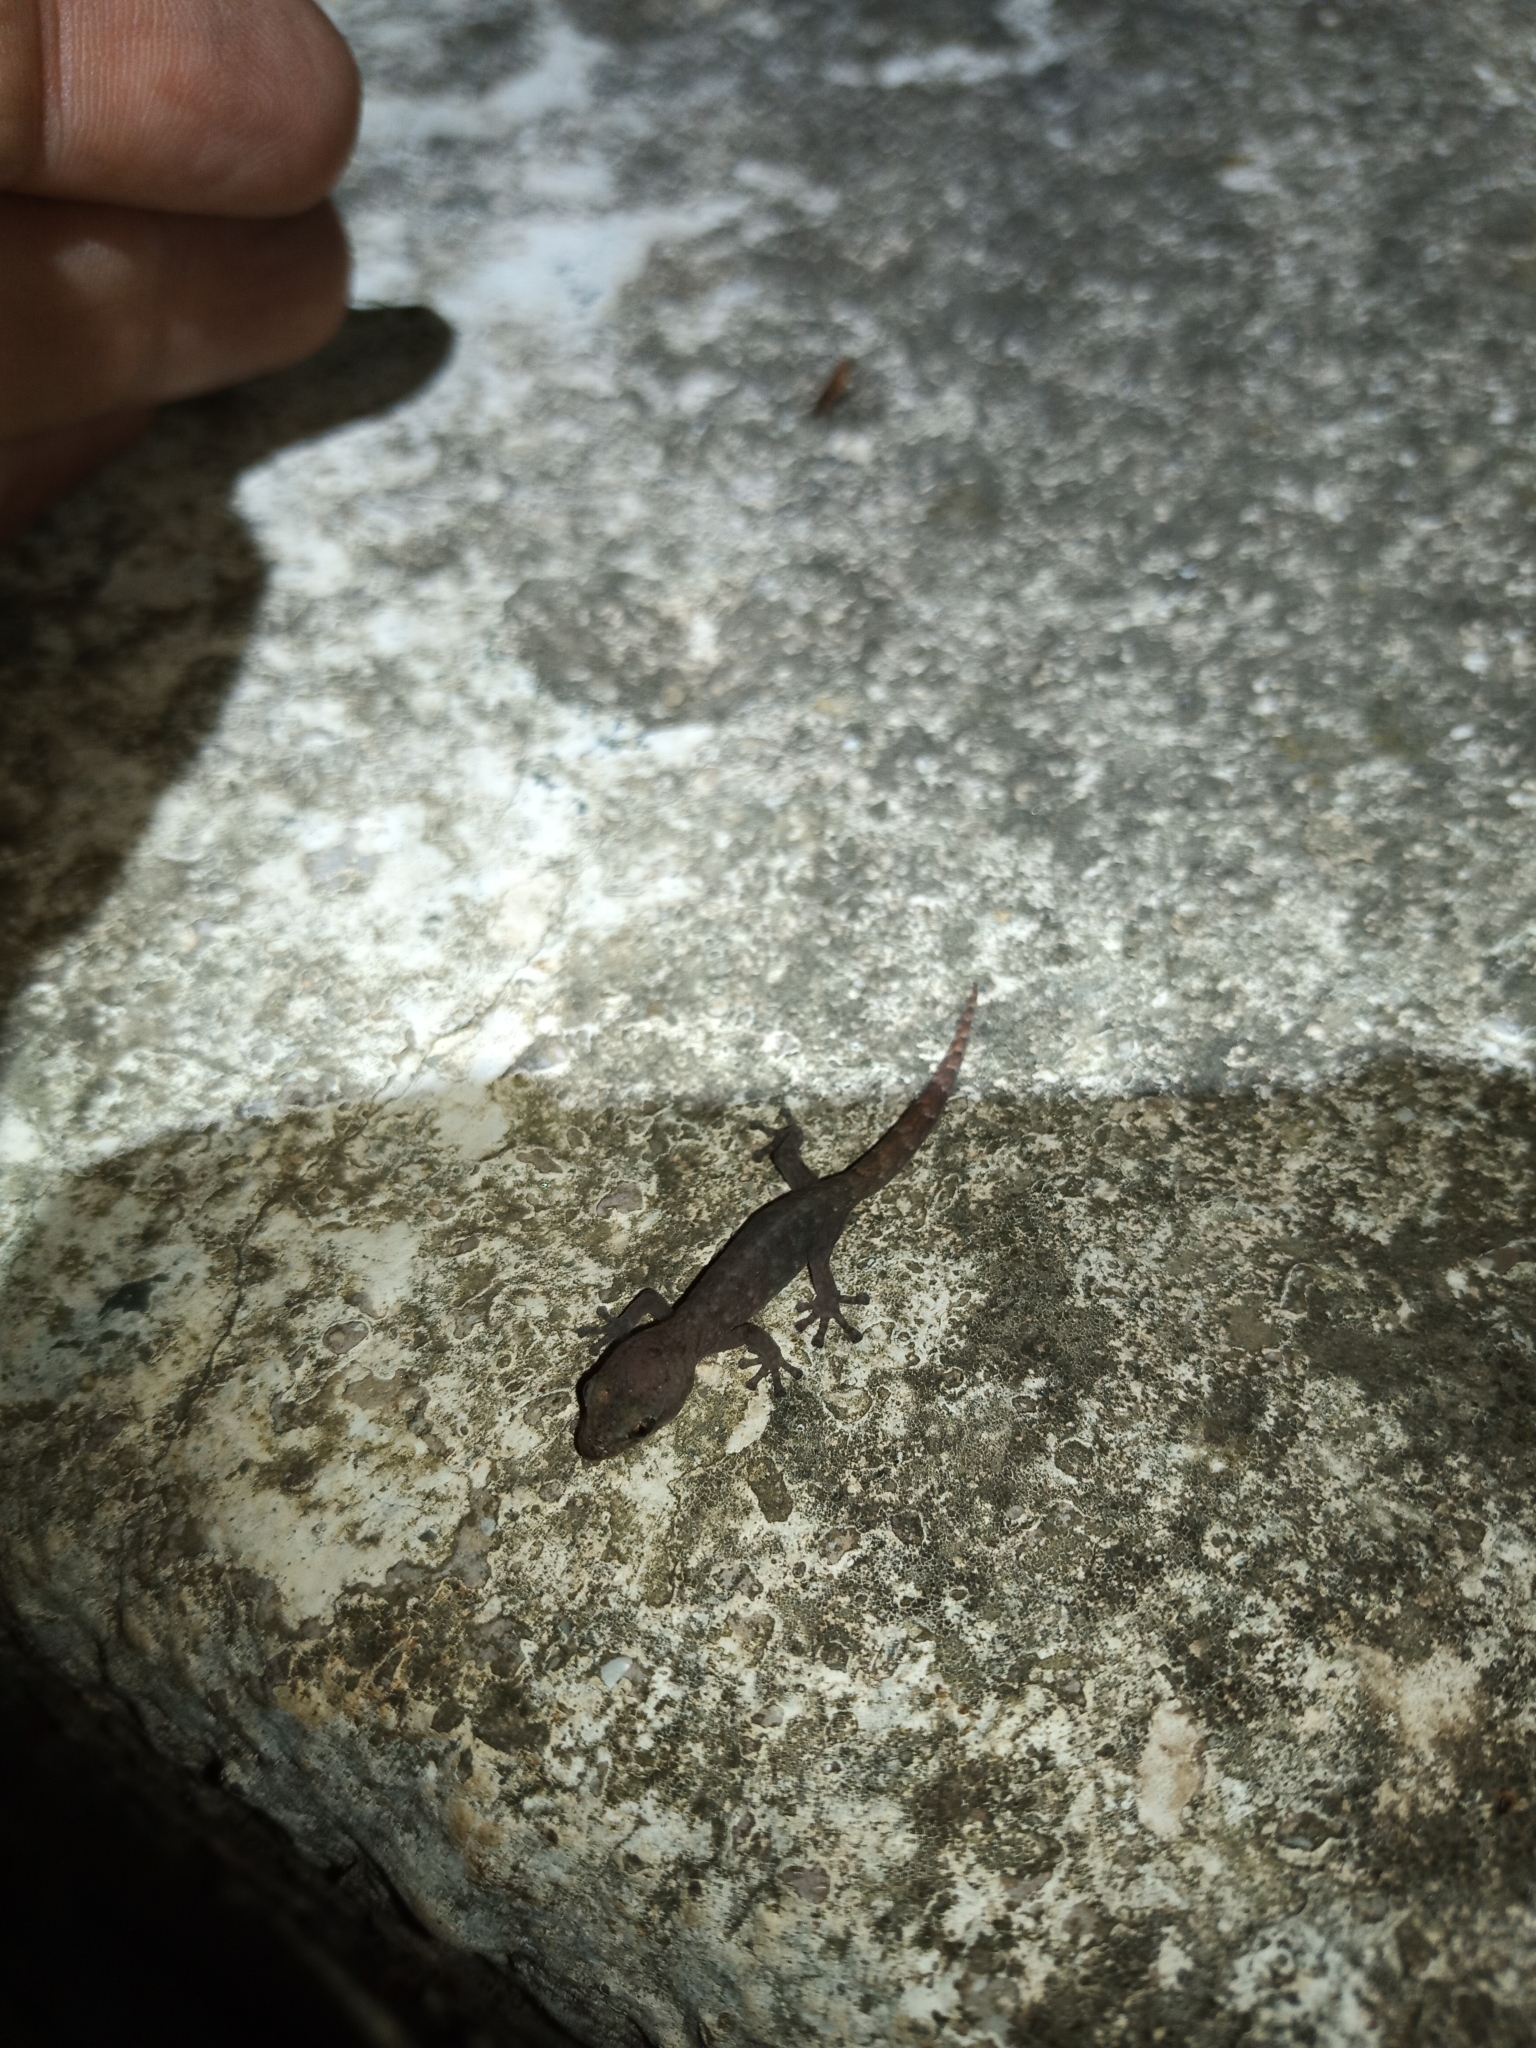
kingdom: Animalia
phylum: Chordata
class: Squamata
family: Gekkonidae
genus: Afrogecko
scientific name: Afrogecko porphyreus
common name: Marbled leaf-toed gecko
